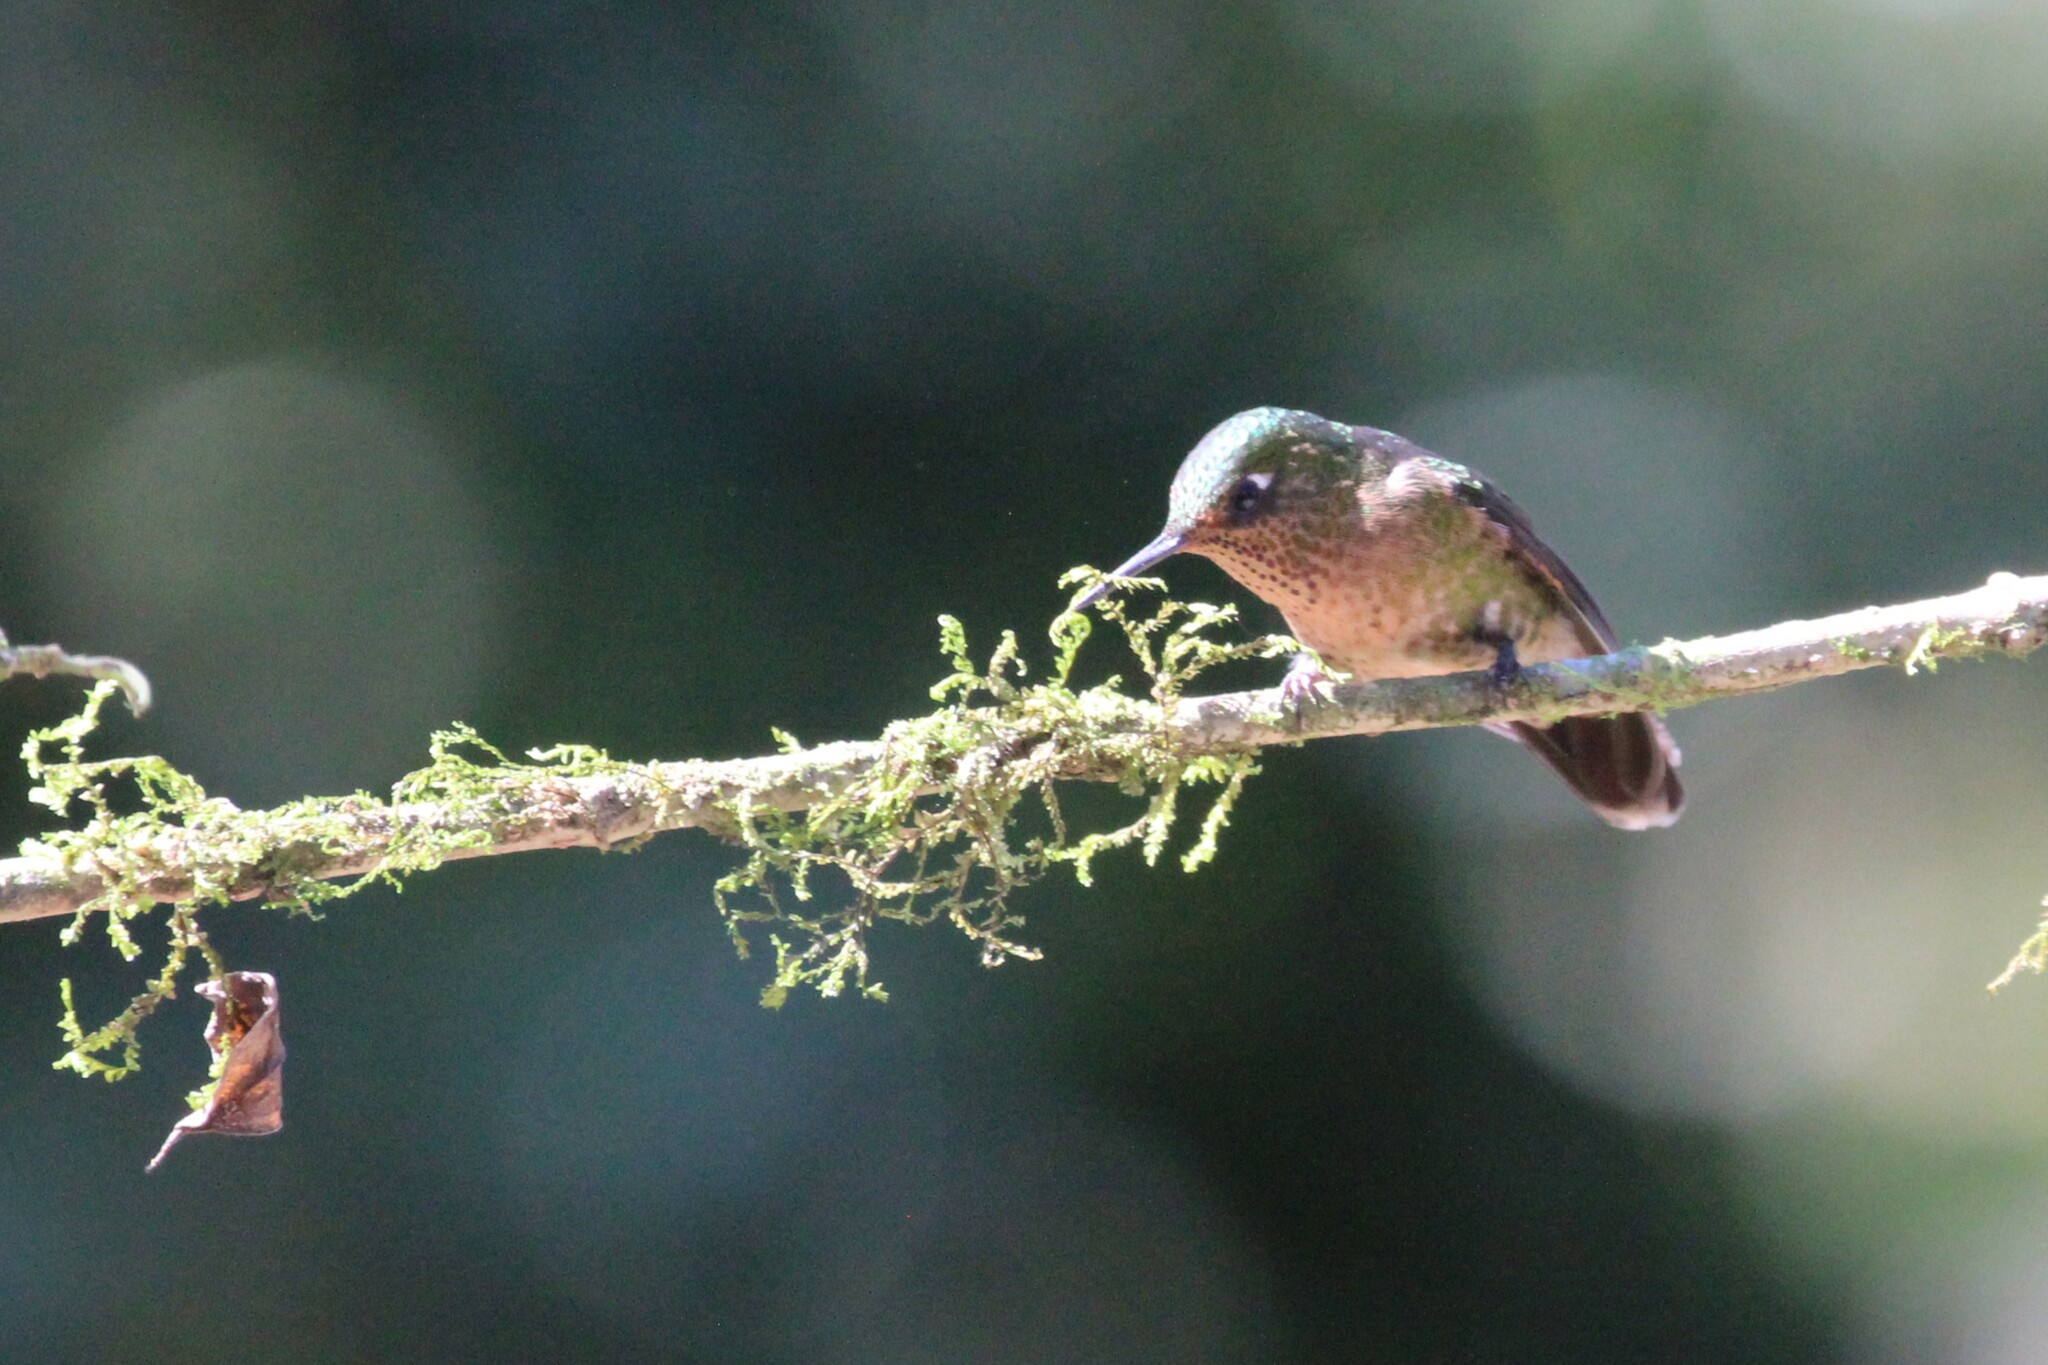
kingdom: Animalia
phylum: Chordata
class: Aves
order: Apodiformes
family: Trochilidae
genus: Metallura
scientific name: Metallura tyrianthina
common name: Tyrian metaltail
